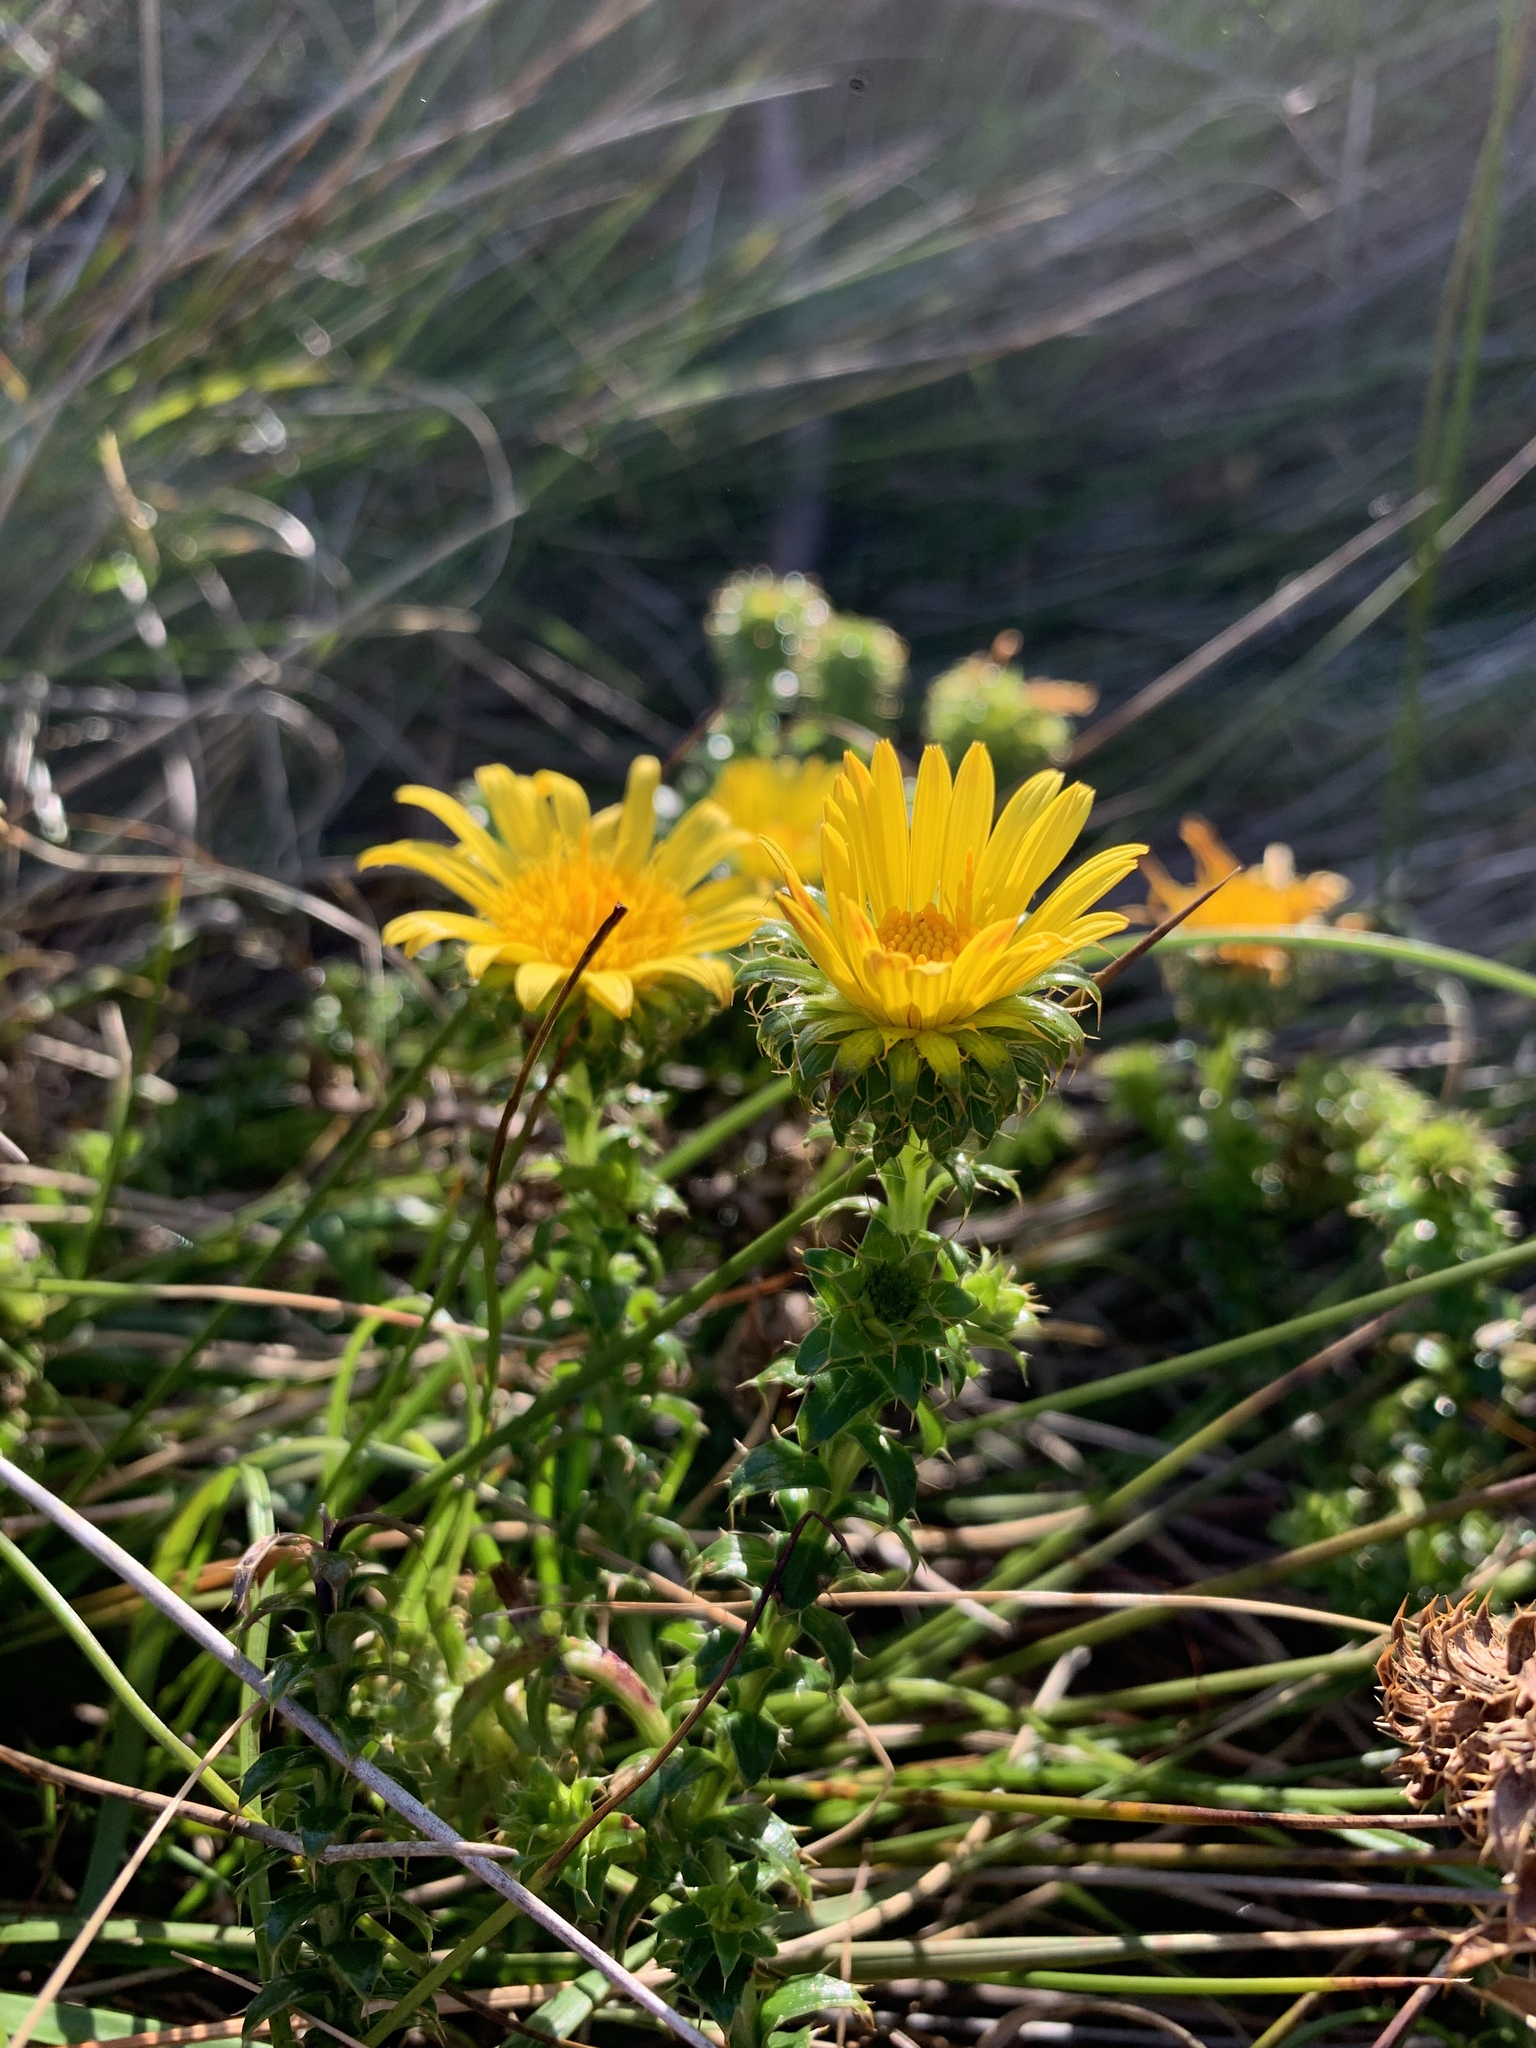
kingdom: Plantae
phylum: Tracheophyta
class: Magnoliopsida
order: Asterales
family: Asteraceae
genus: Cullumia
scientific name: Cullumia setosa
